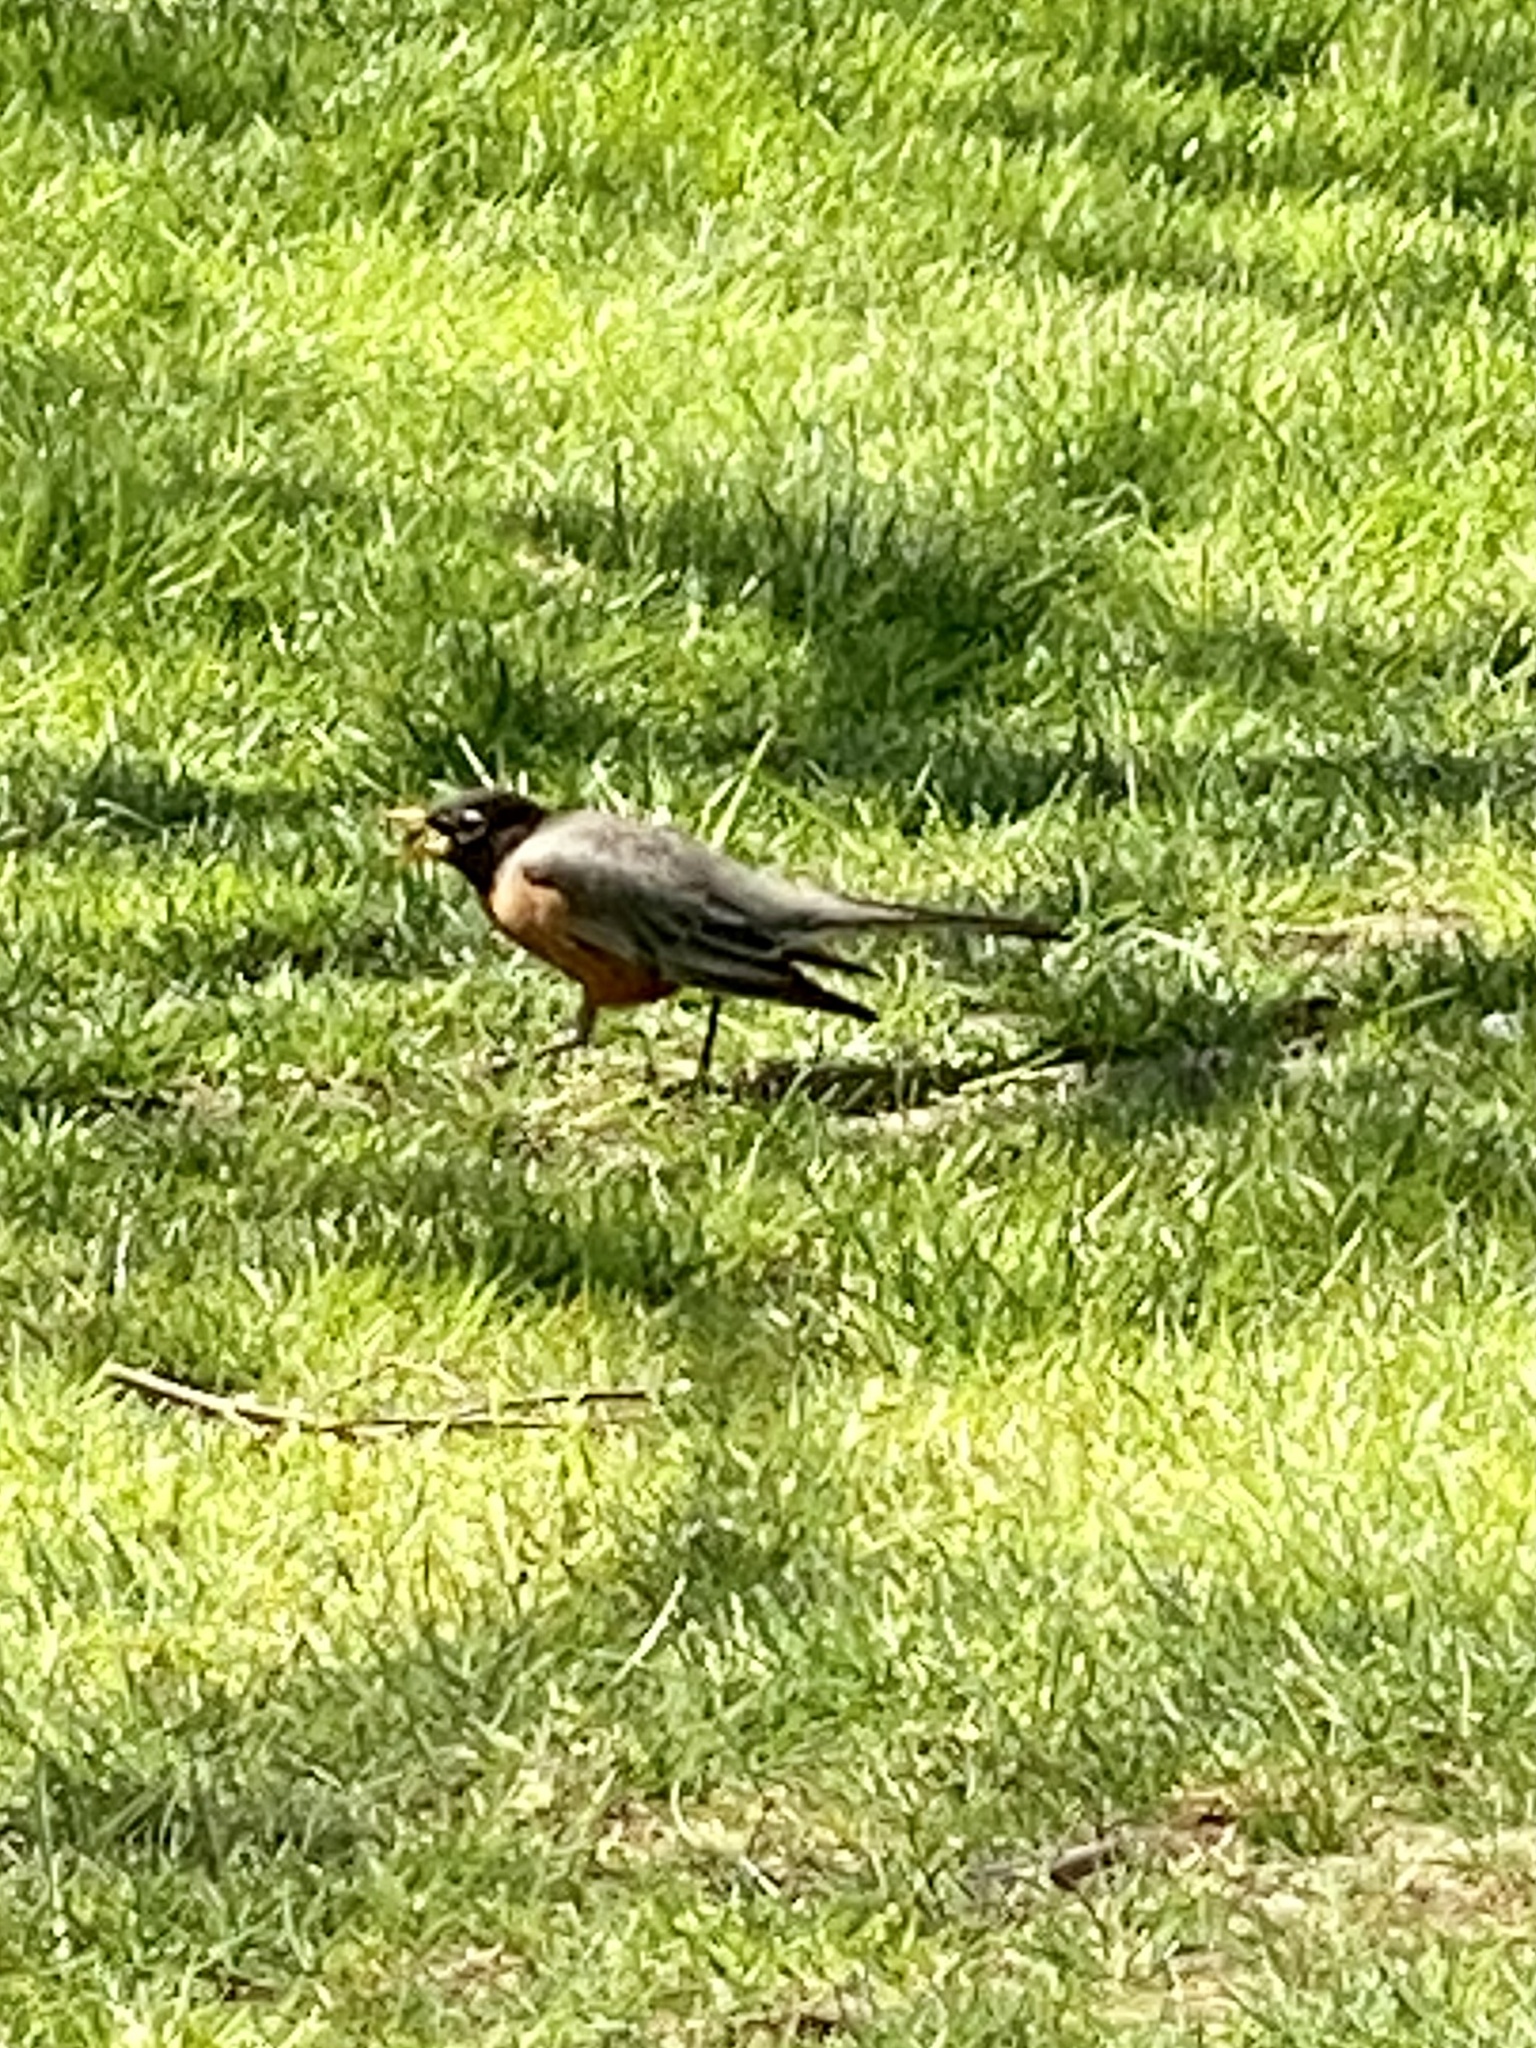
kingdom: Animalia
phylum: Chordata
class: Aves
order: Passeriformes
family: Turdidae
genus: Turdus
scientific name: Turdus migratorius
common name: American robin
